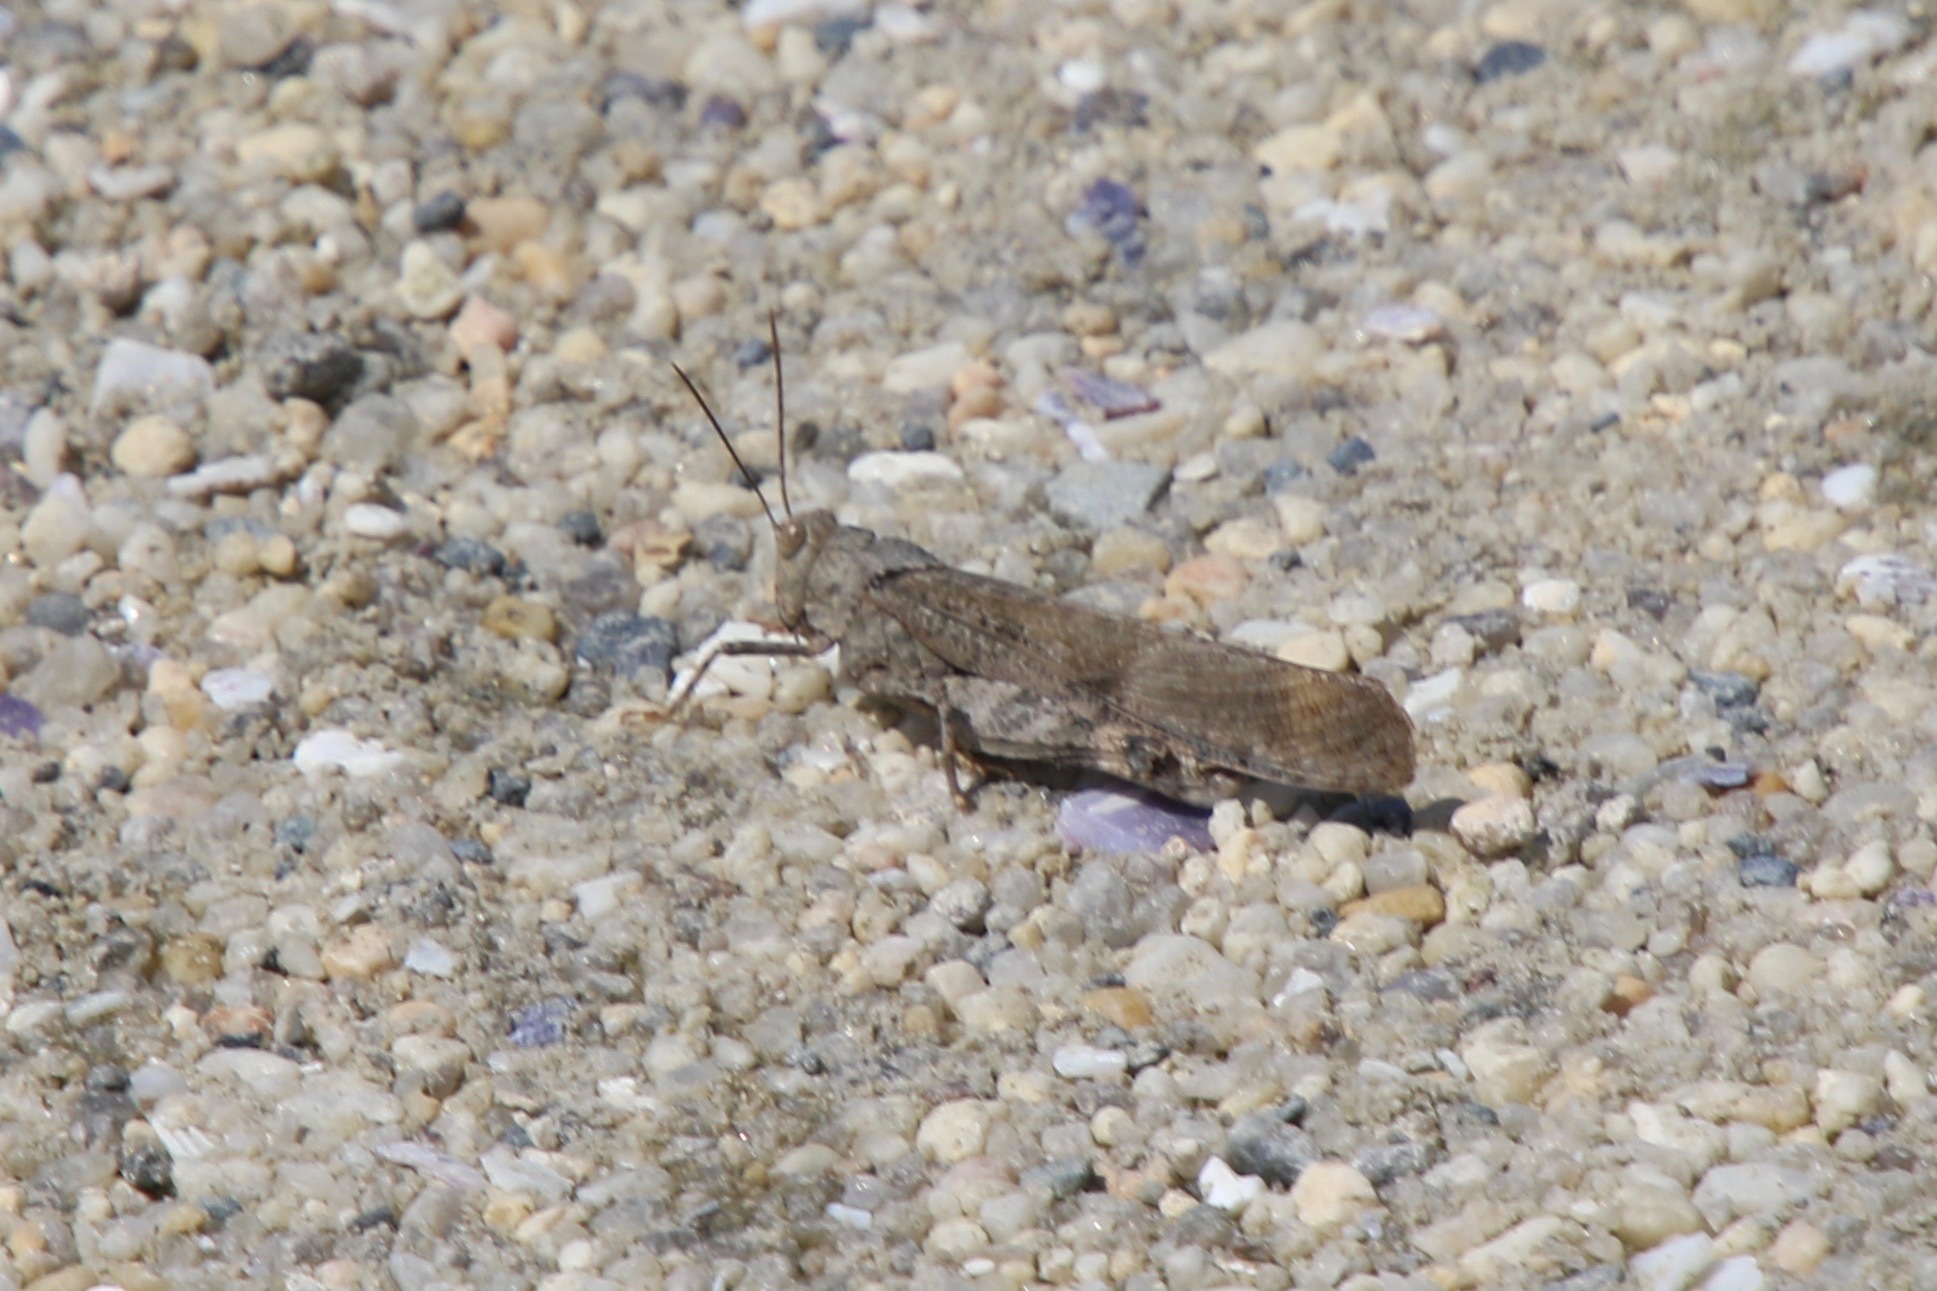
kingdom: Animalia
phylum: Arthropoda
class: Insecta
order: Orthoptera
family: Acrididae
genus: Dissosteira
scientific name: Dissosteira carolina
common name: Carolina grasshopper
